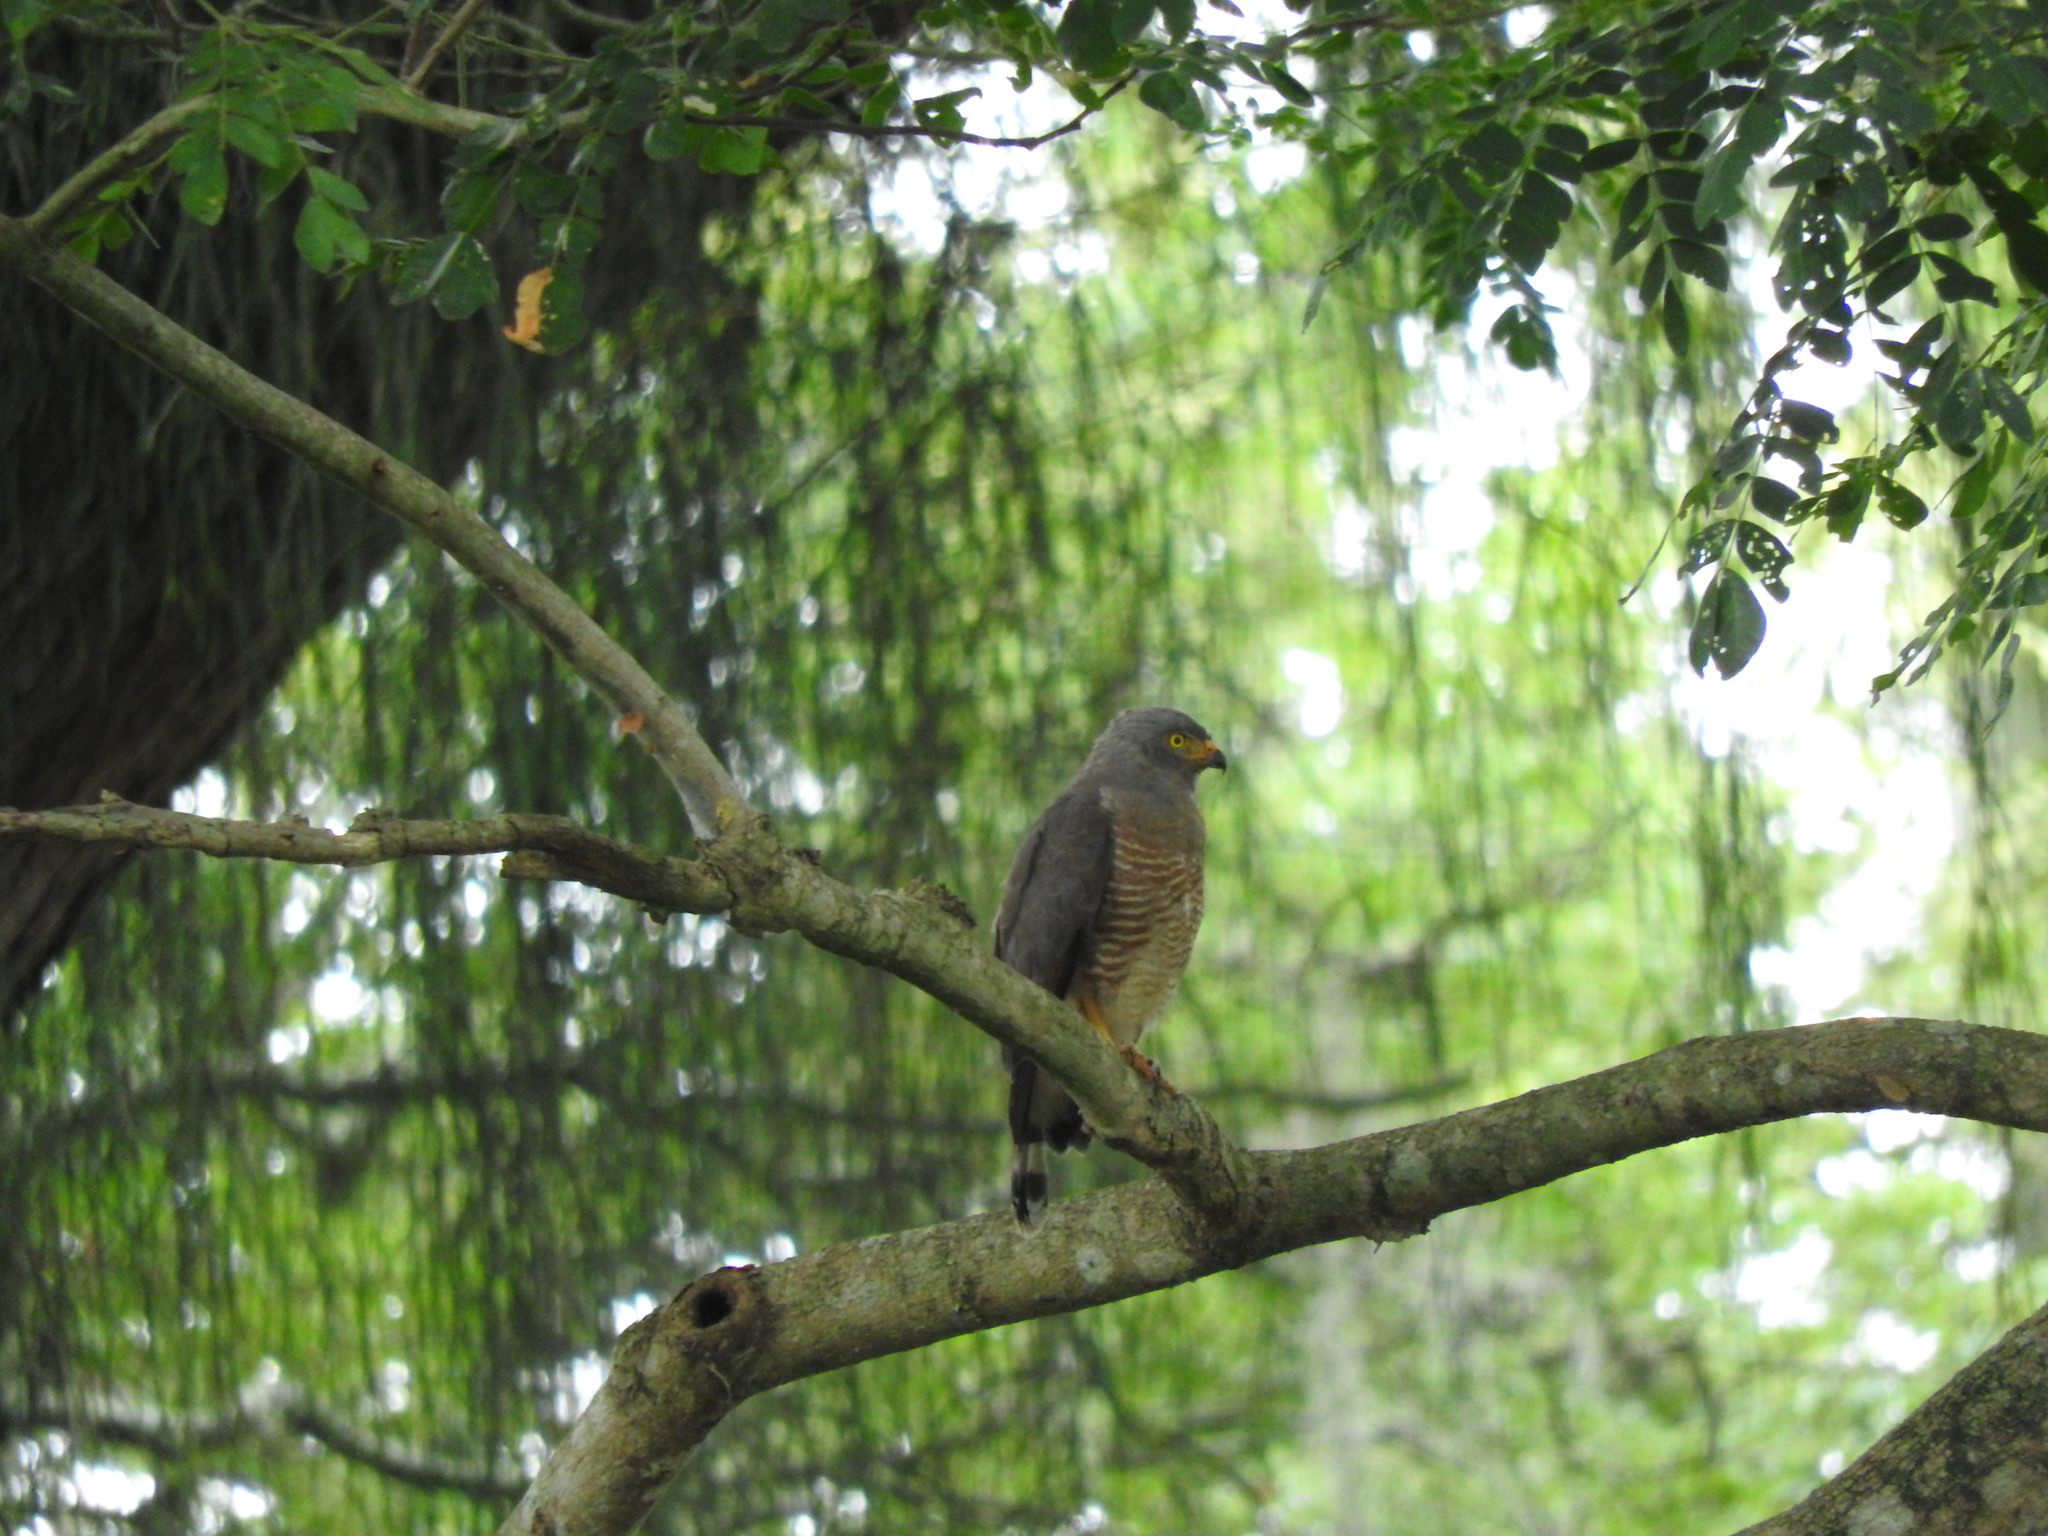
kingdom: Animalia
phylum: Chordata
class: Aves
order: Accipitriformes
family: Accipitridae
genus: Rupornis
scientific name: Rupornis magnirostris
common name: Roadside hawk
